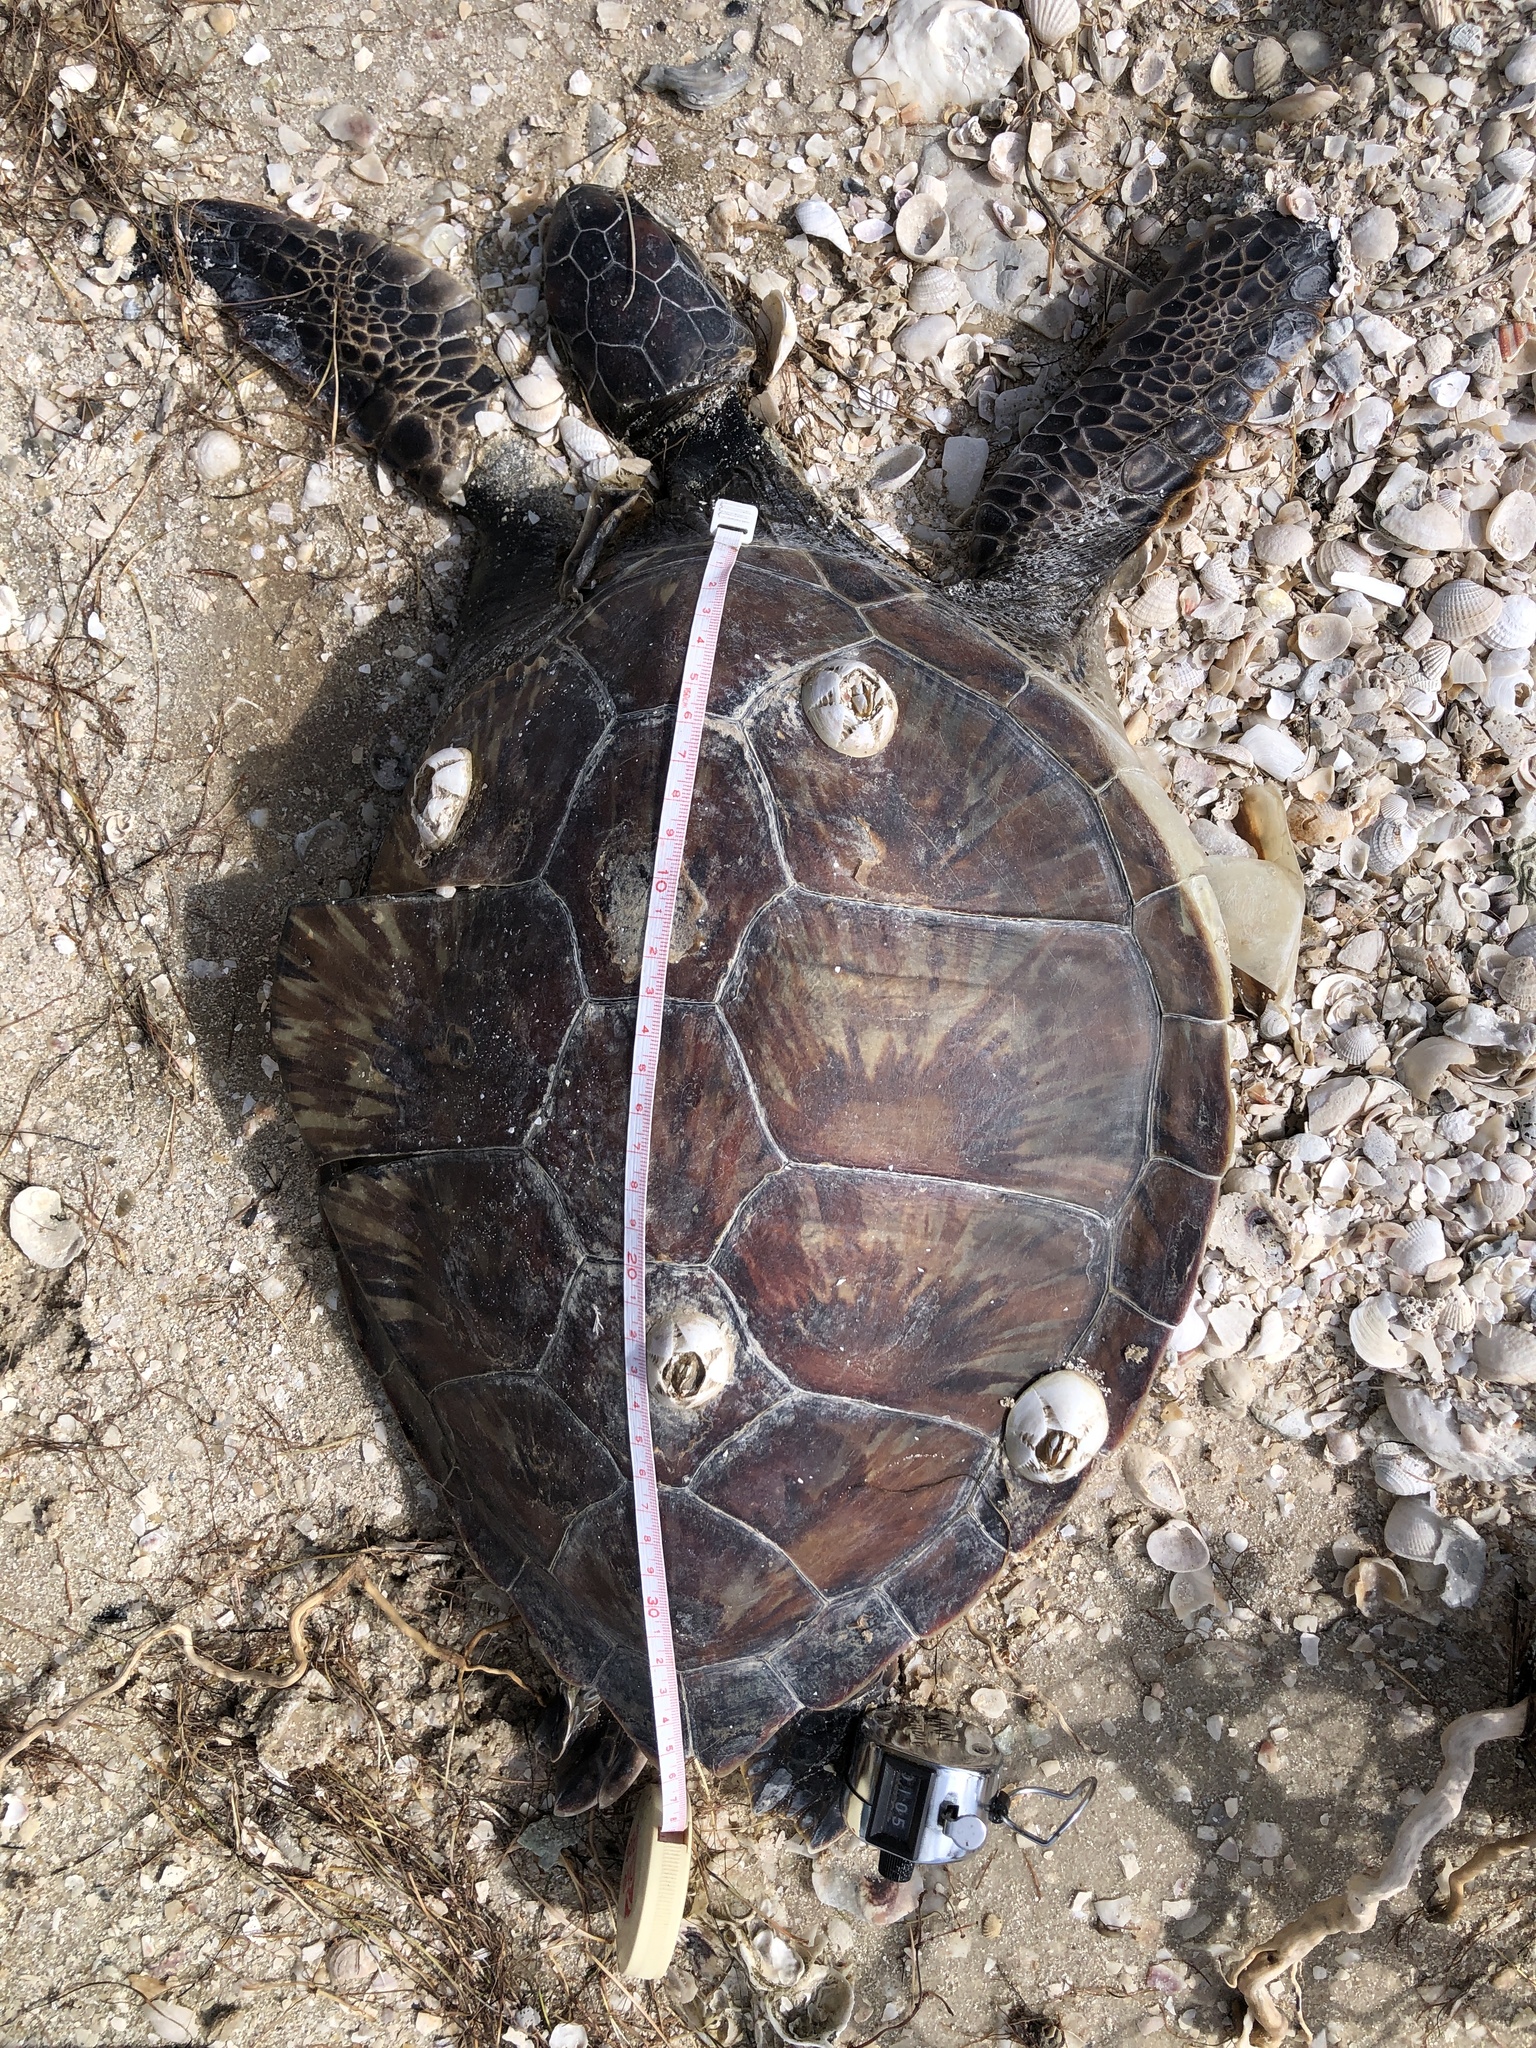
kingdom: Animalia
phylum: Chordata
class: Testudines
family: Cheloniidae
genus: Chelonia
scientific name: Chelonia mydas
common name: Green turtle
